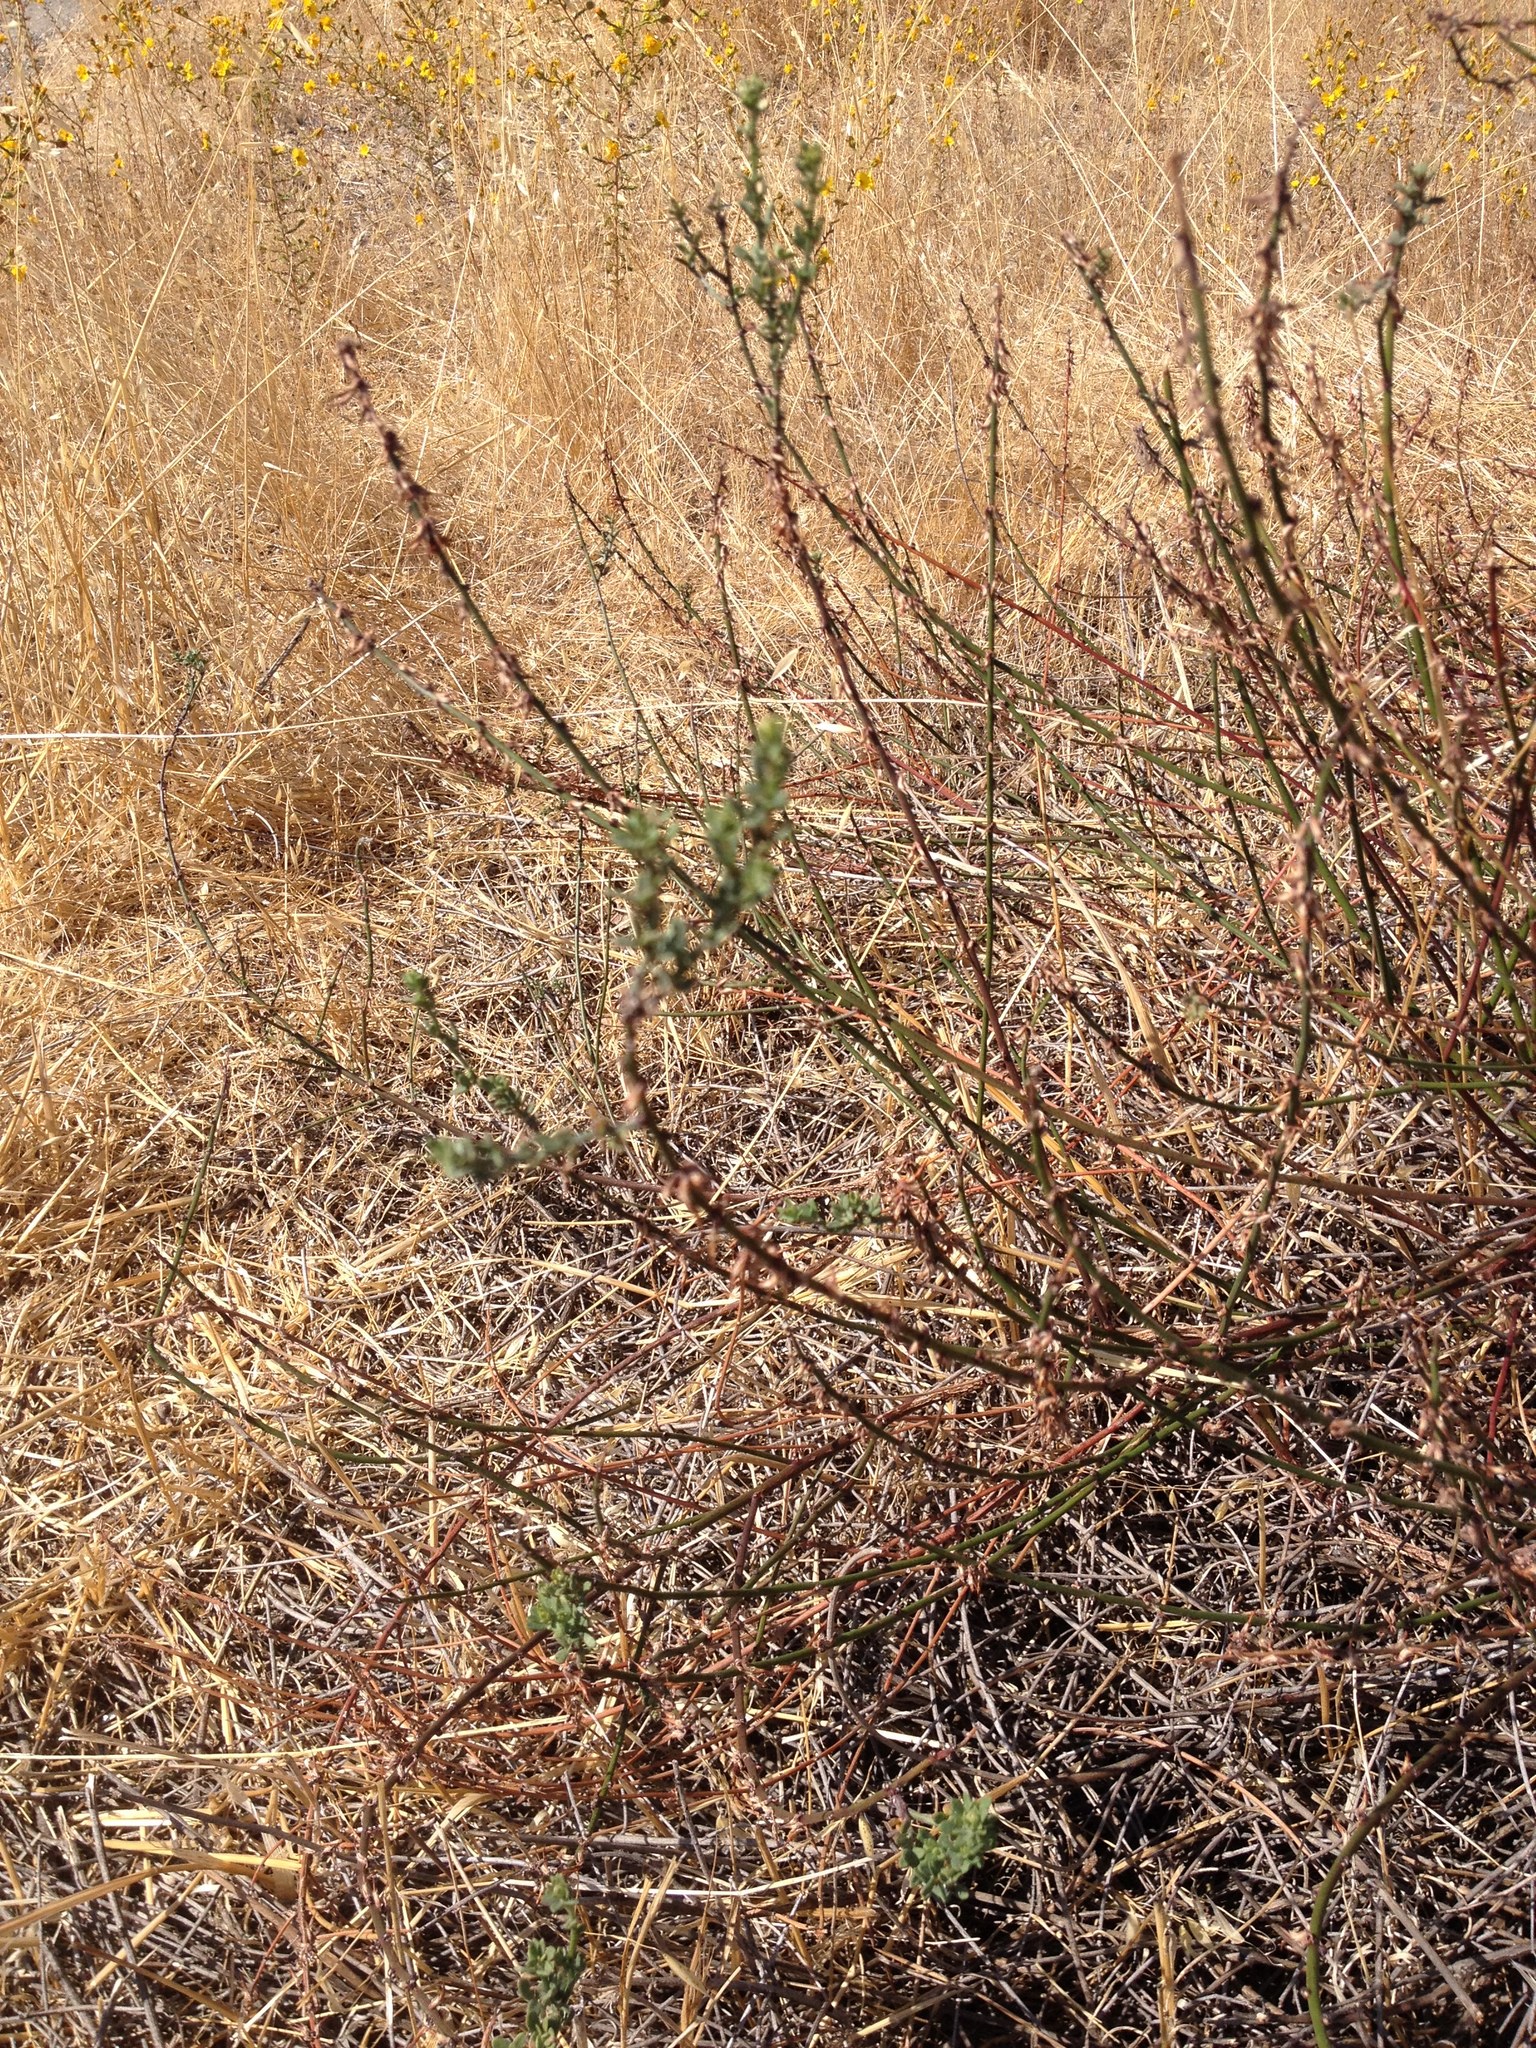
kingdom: Plantae
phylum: Tracheophyta
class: Magnoliopsida
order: Fabales
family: Fabaceae
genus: Acmispon
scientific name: Acmispon glaber
